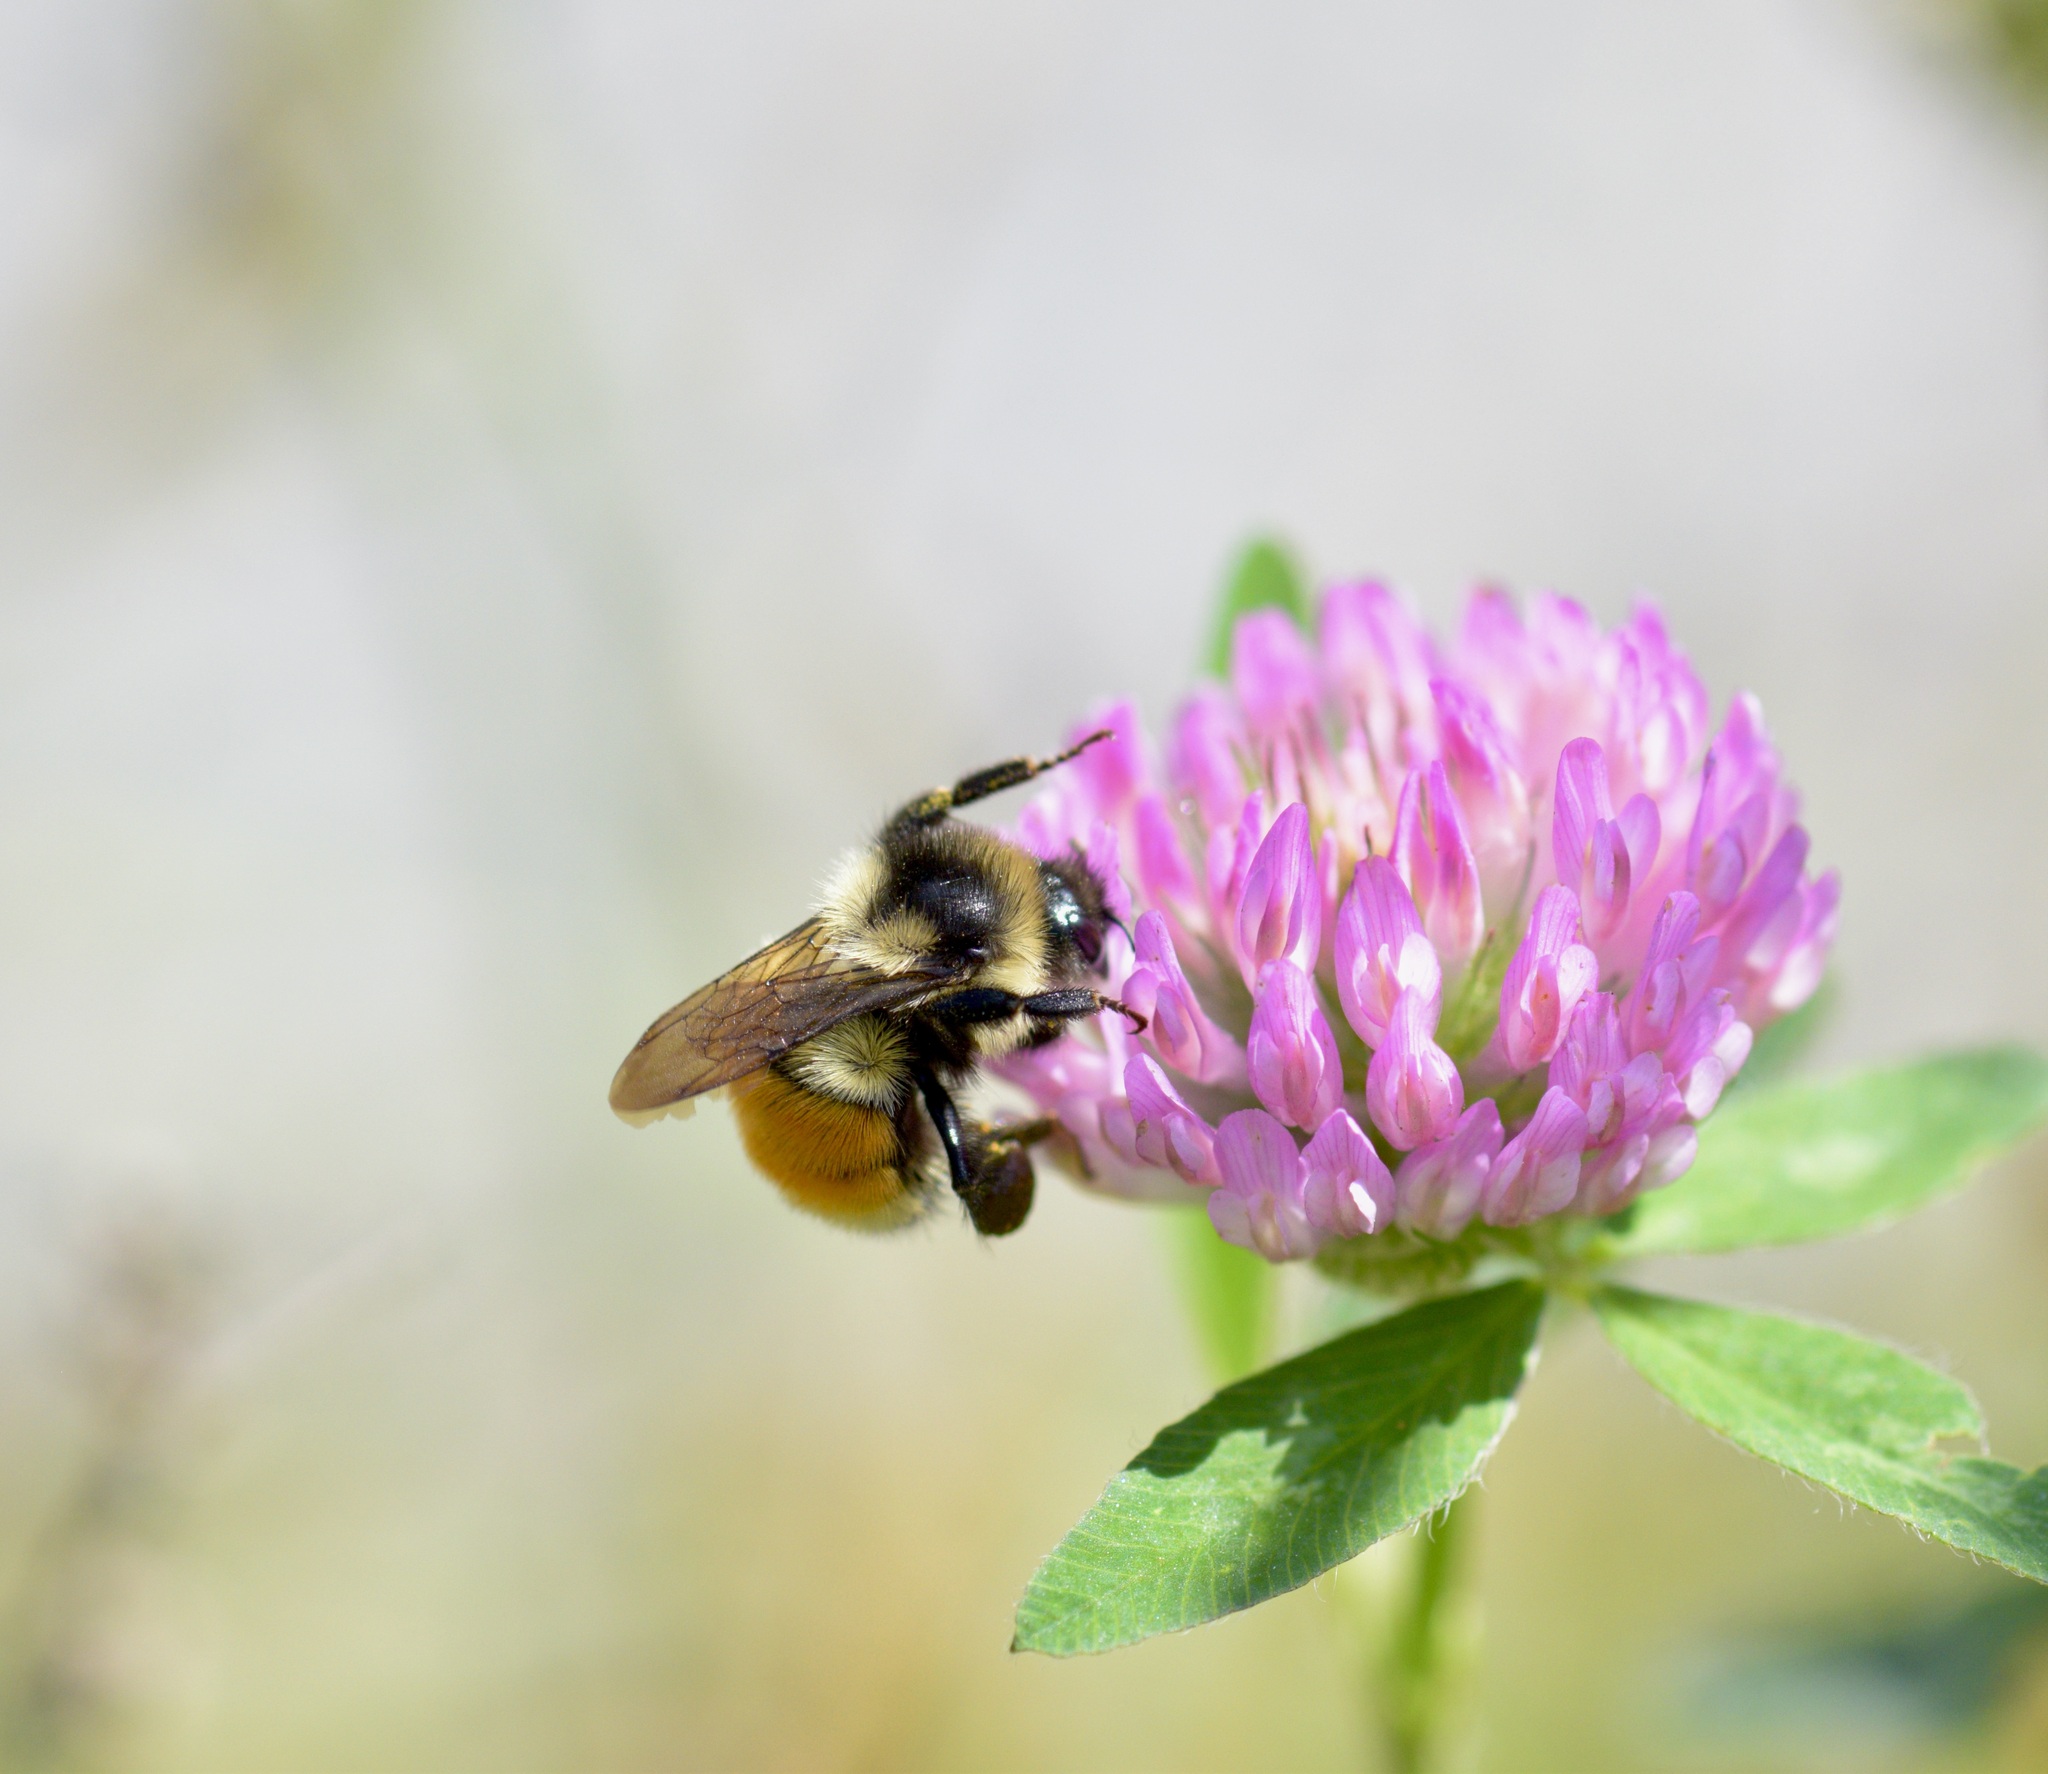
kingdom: Animalia
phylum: Arthropoda
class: Insecta
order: Hymenoptera
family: Apidae
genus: Bombus
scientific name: Bombus ternarius
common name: Tri-colored bumble bee
